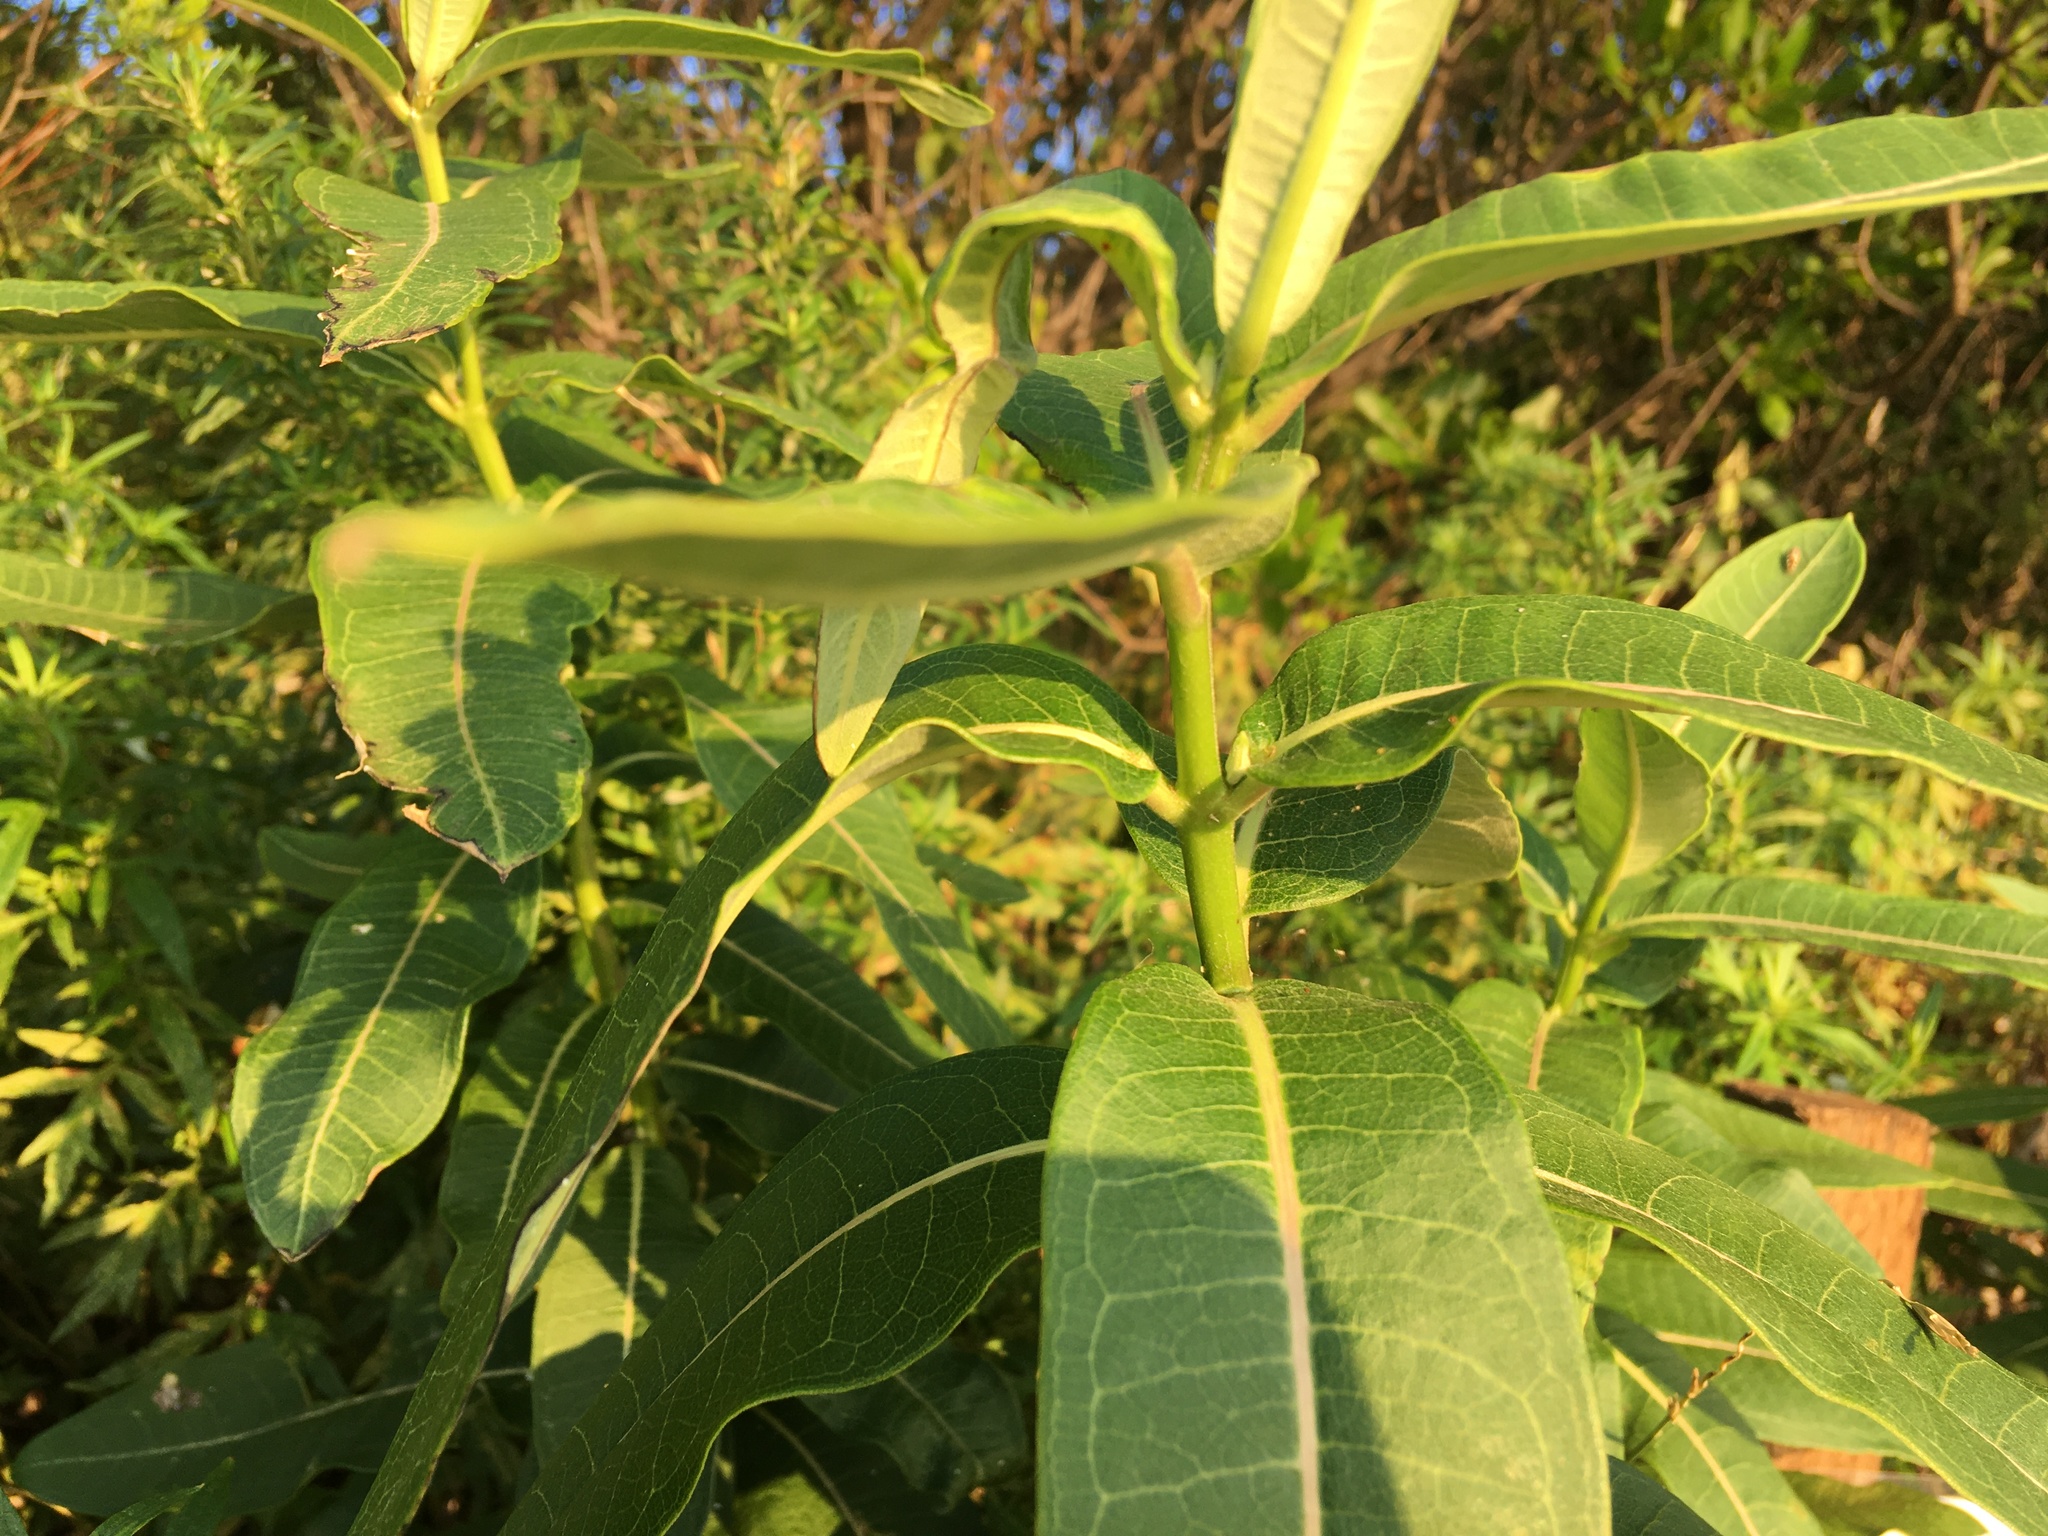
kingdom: Plantae
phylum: Tracheophyta
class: Magnoliopsida
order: Gentianales
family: Apocynaceae
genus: Asclepias
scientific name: Asclepias syriaca
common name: Common milkweed
